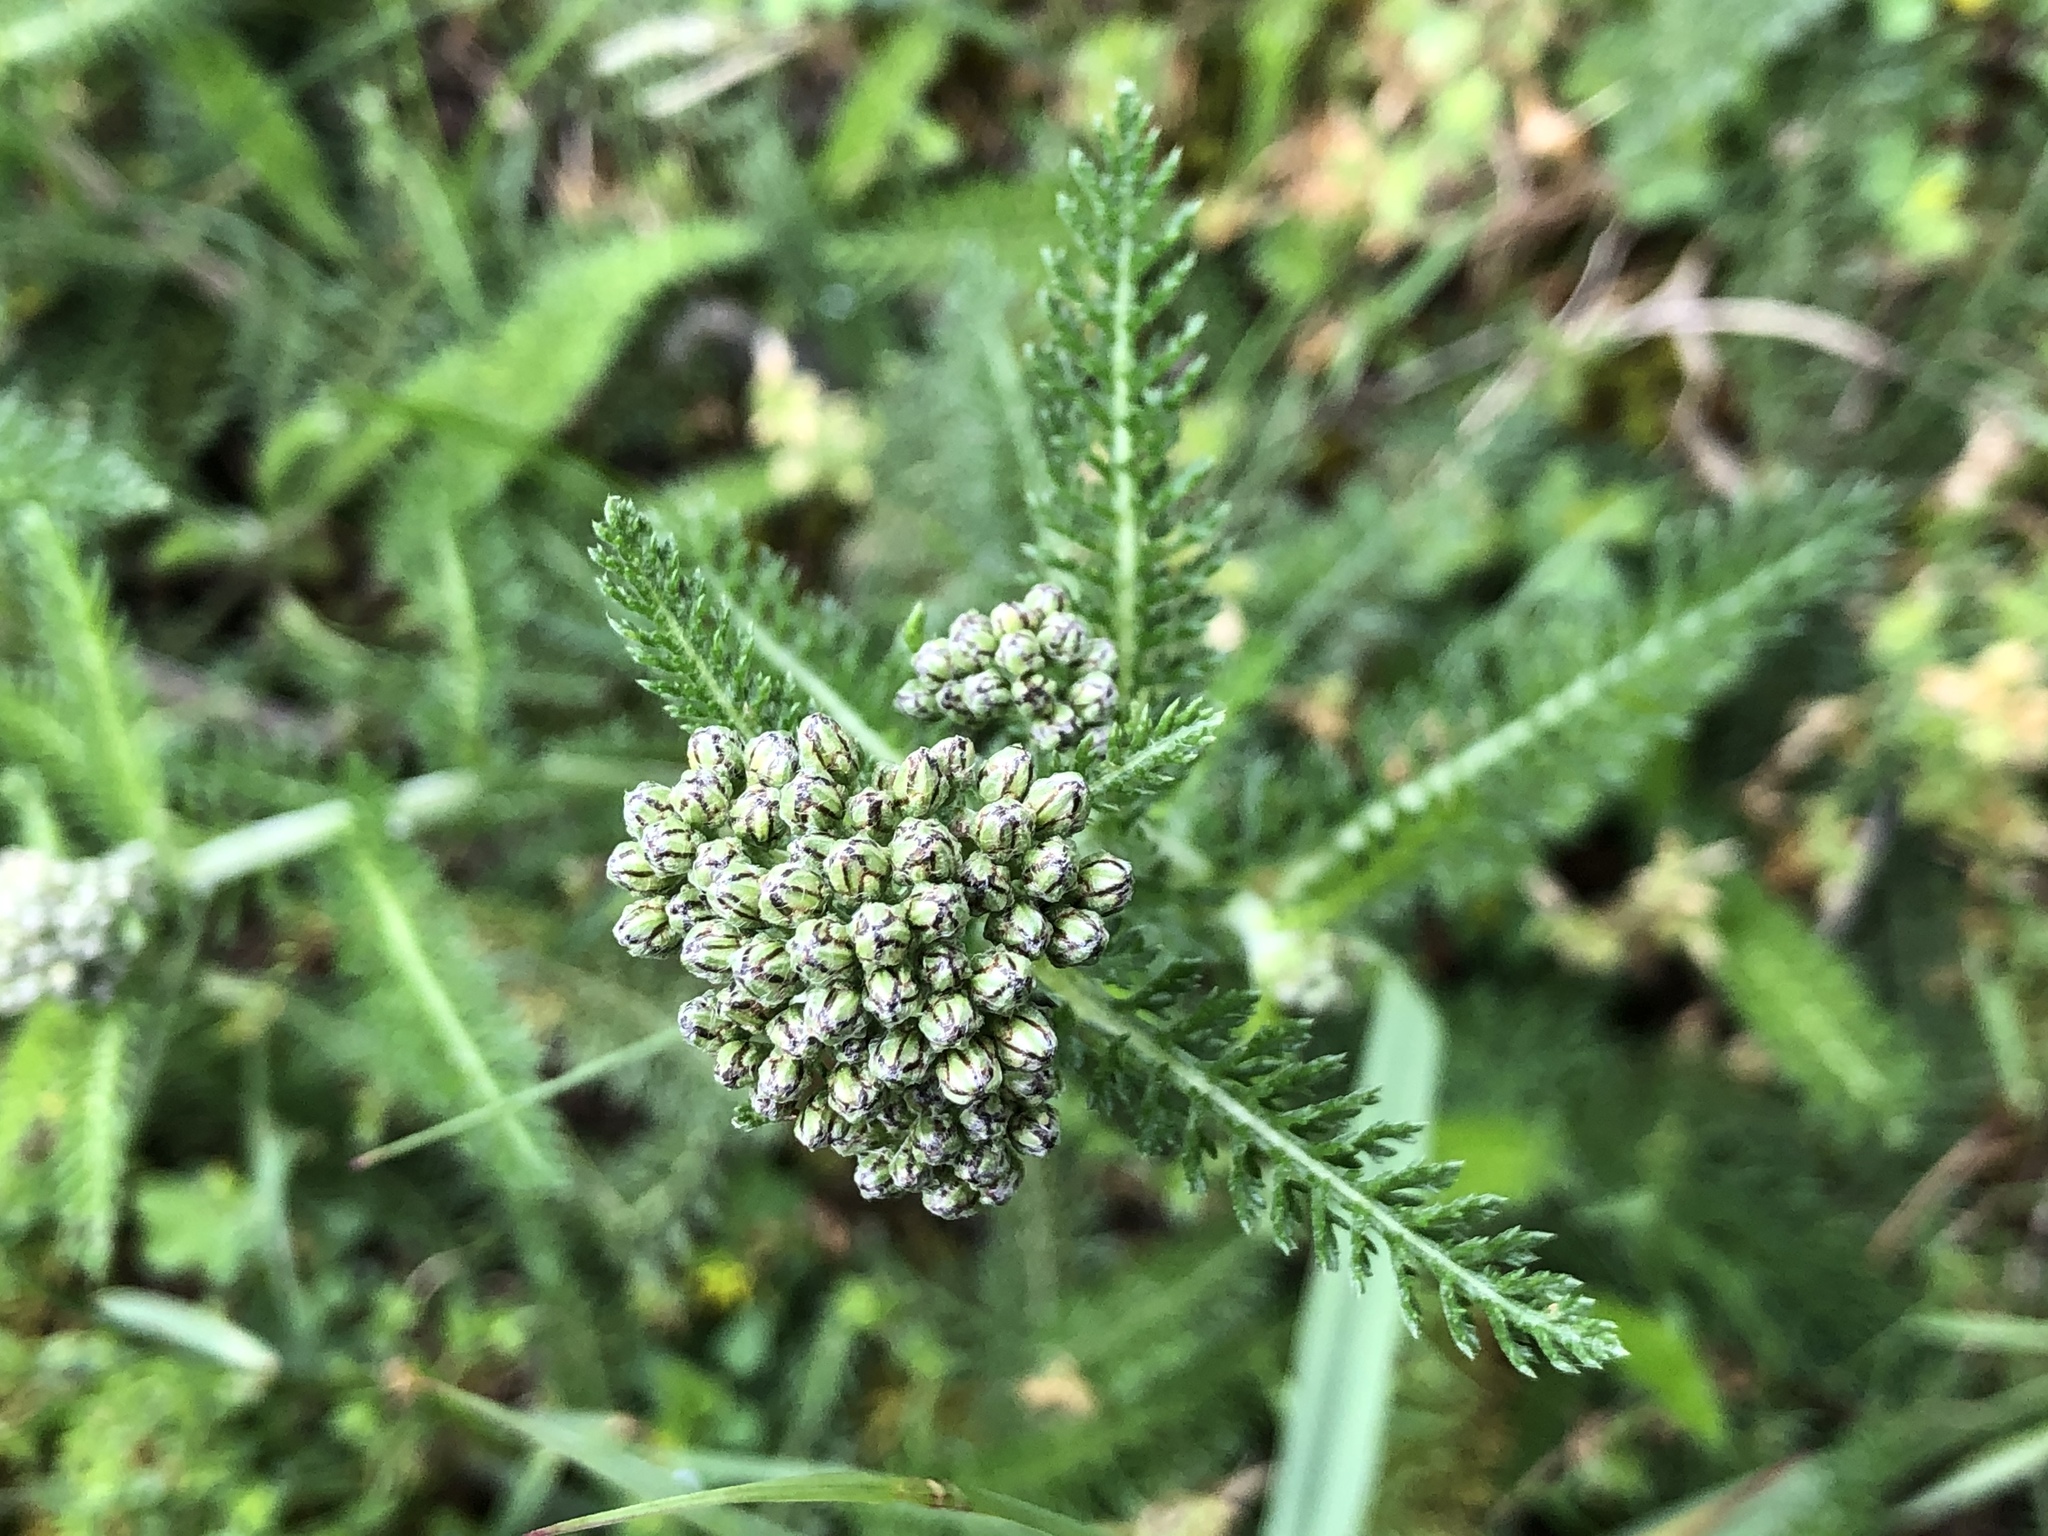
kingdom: Plantae
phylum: Tracheophyta
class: Magnoliopsida
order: Asterales
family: Asteraceae
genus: Achillea
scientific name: Achillea millefolium
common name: Yarrow
